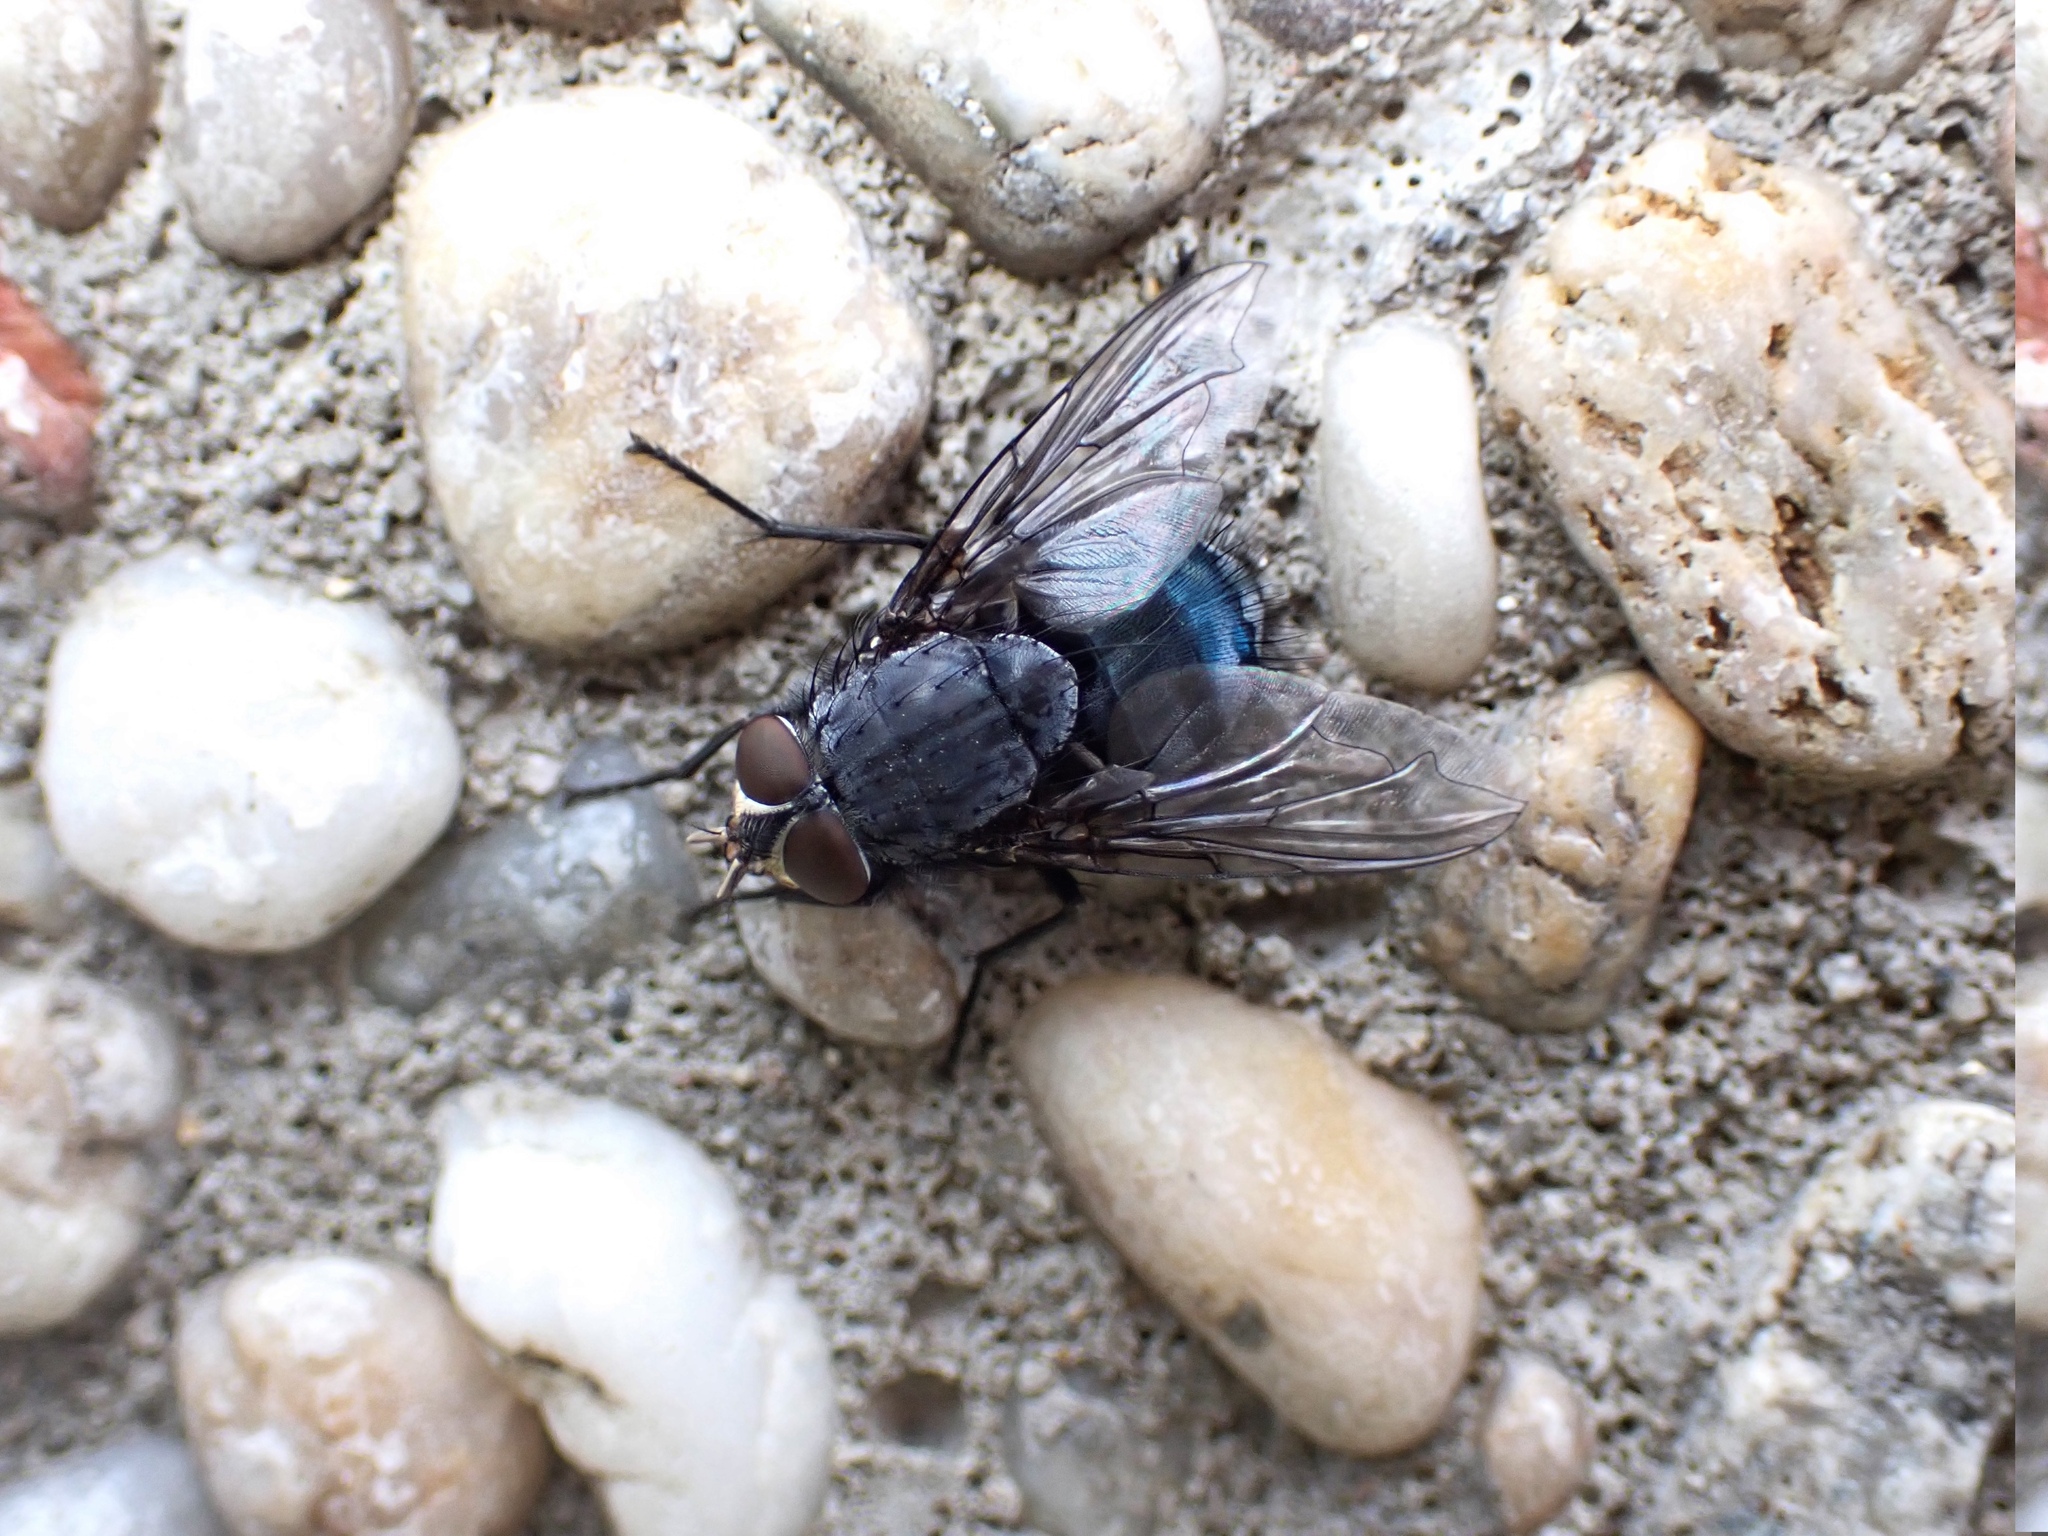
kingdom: Animalia
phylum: Arthropoda
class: Insecta
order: Diptera
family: Calliphoridae
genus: Calliphora
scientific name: Calliphora vicina
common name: Common blow flie
